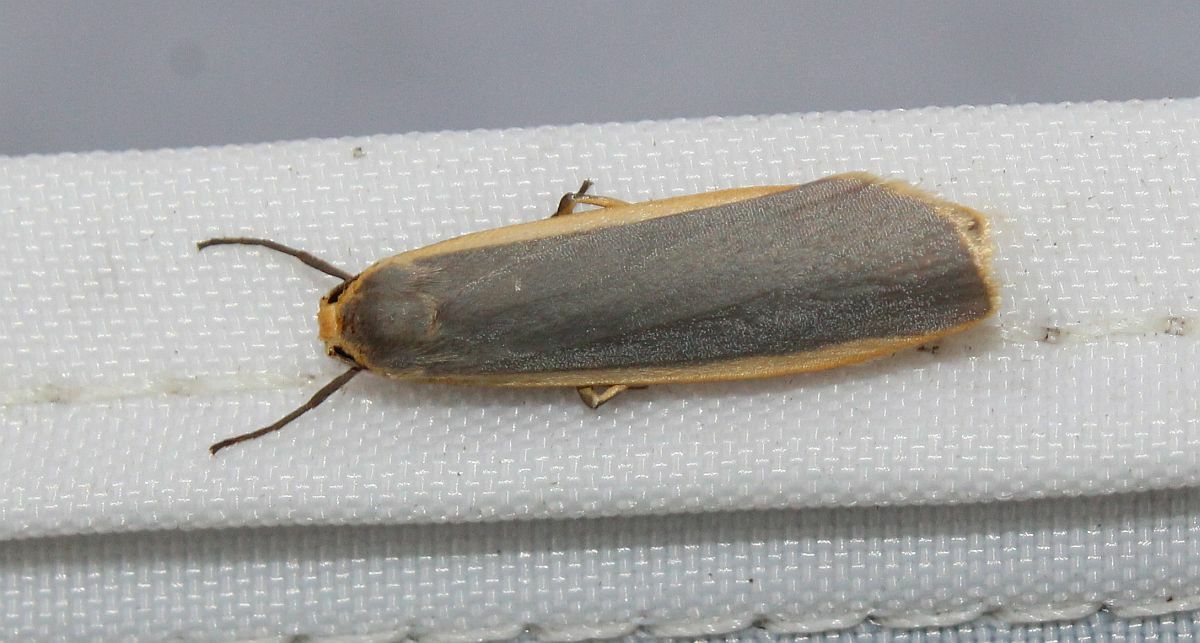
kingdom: Animalia
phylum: Arthropoda
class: Insecta
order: Lepidoptera
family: Erebidae
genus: Nyea
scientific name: Nyea lurideola
